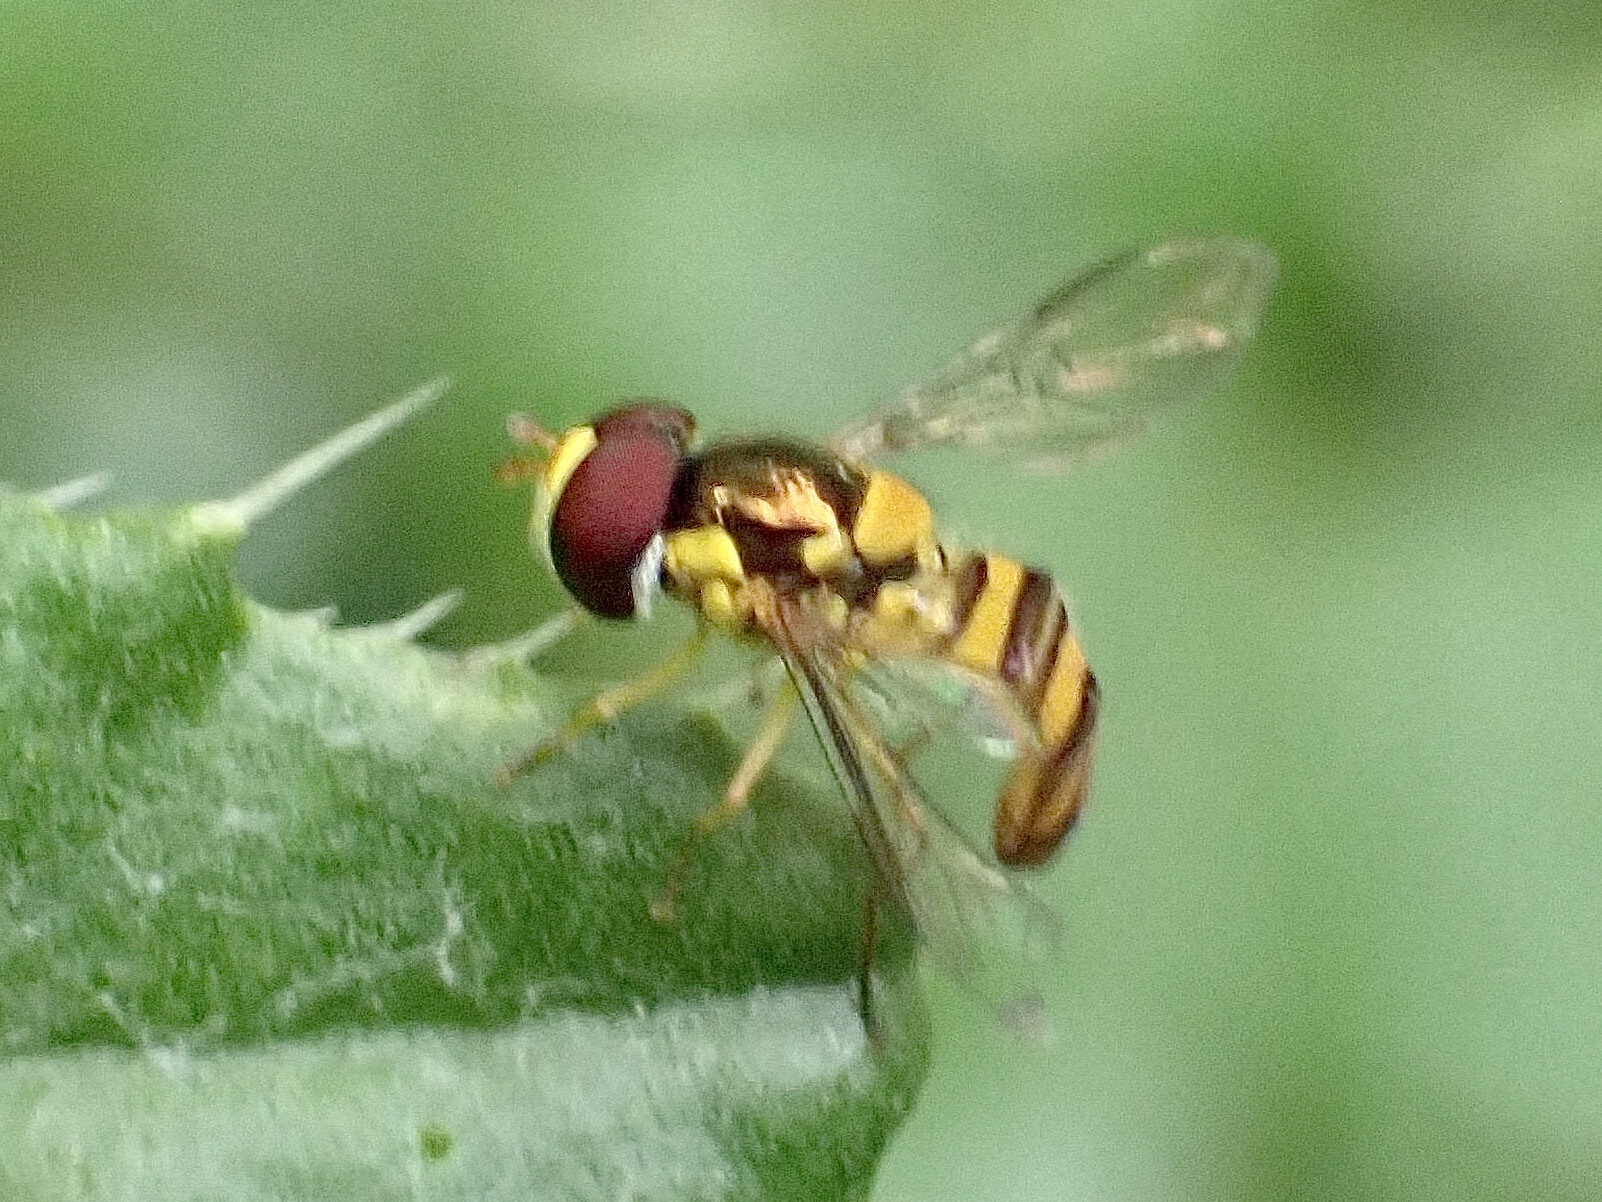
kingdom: Animalia
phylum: Arthropoda
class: Insecta
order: Diptera
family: Syrphidae
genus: Allograpta
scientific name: Allograpta obliqua
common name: Common oblique syrphid
